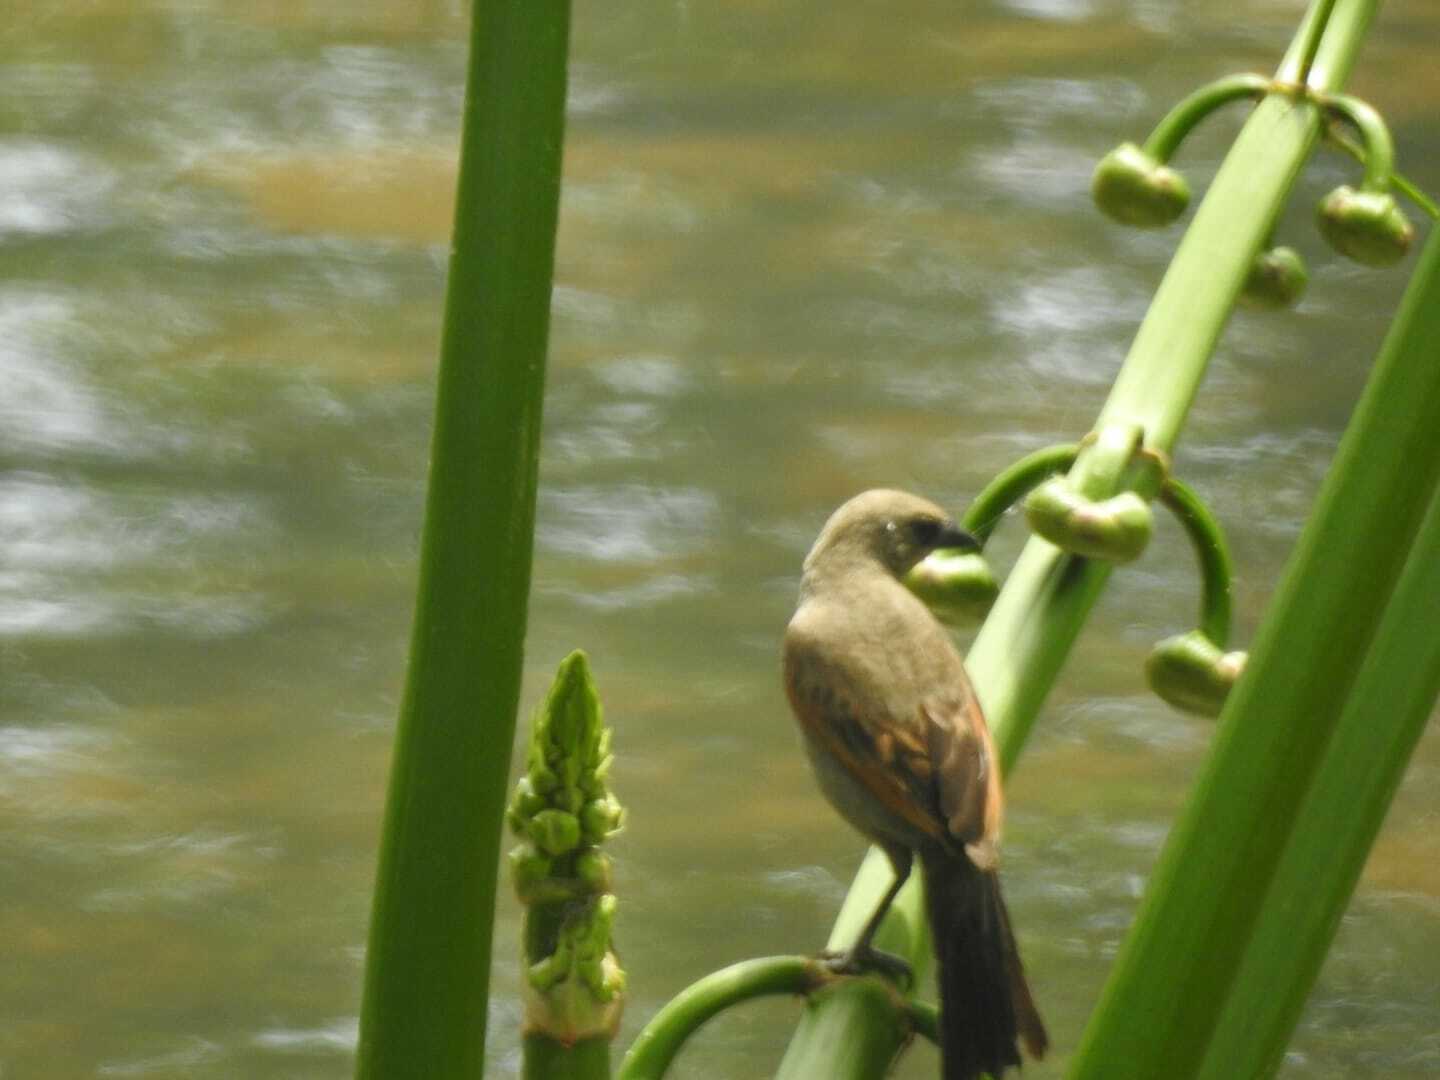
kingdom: Animalia
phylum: Chordata
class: Aves
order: Passeriformes
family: Icteridae
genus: Agelaioides
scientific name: Agelaioides badius
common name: Baywing
